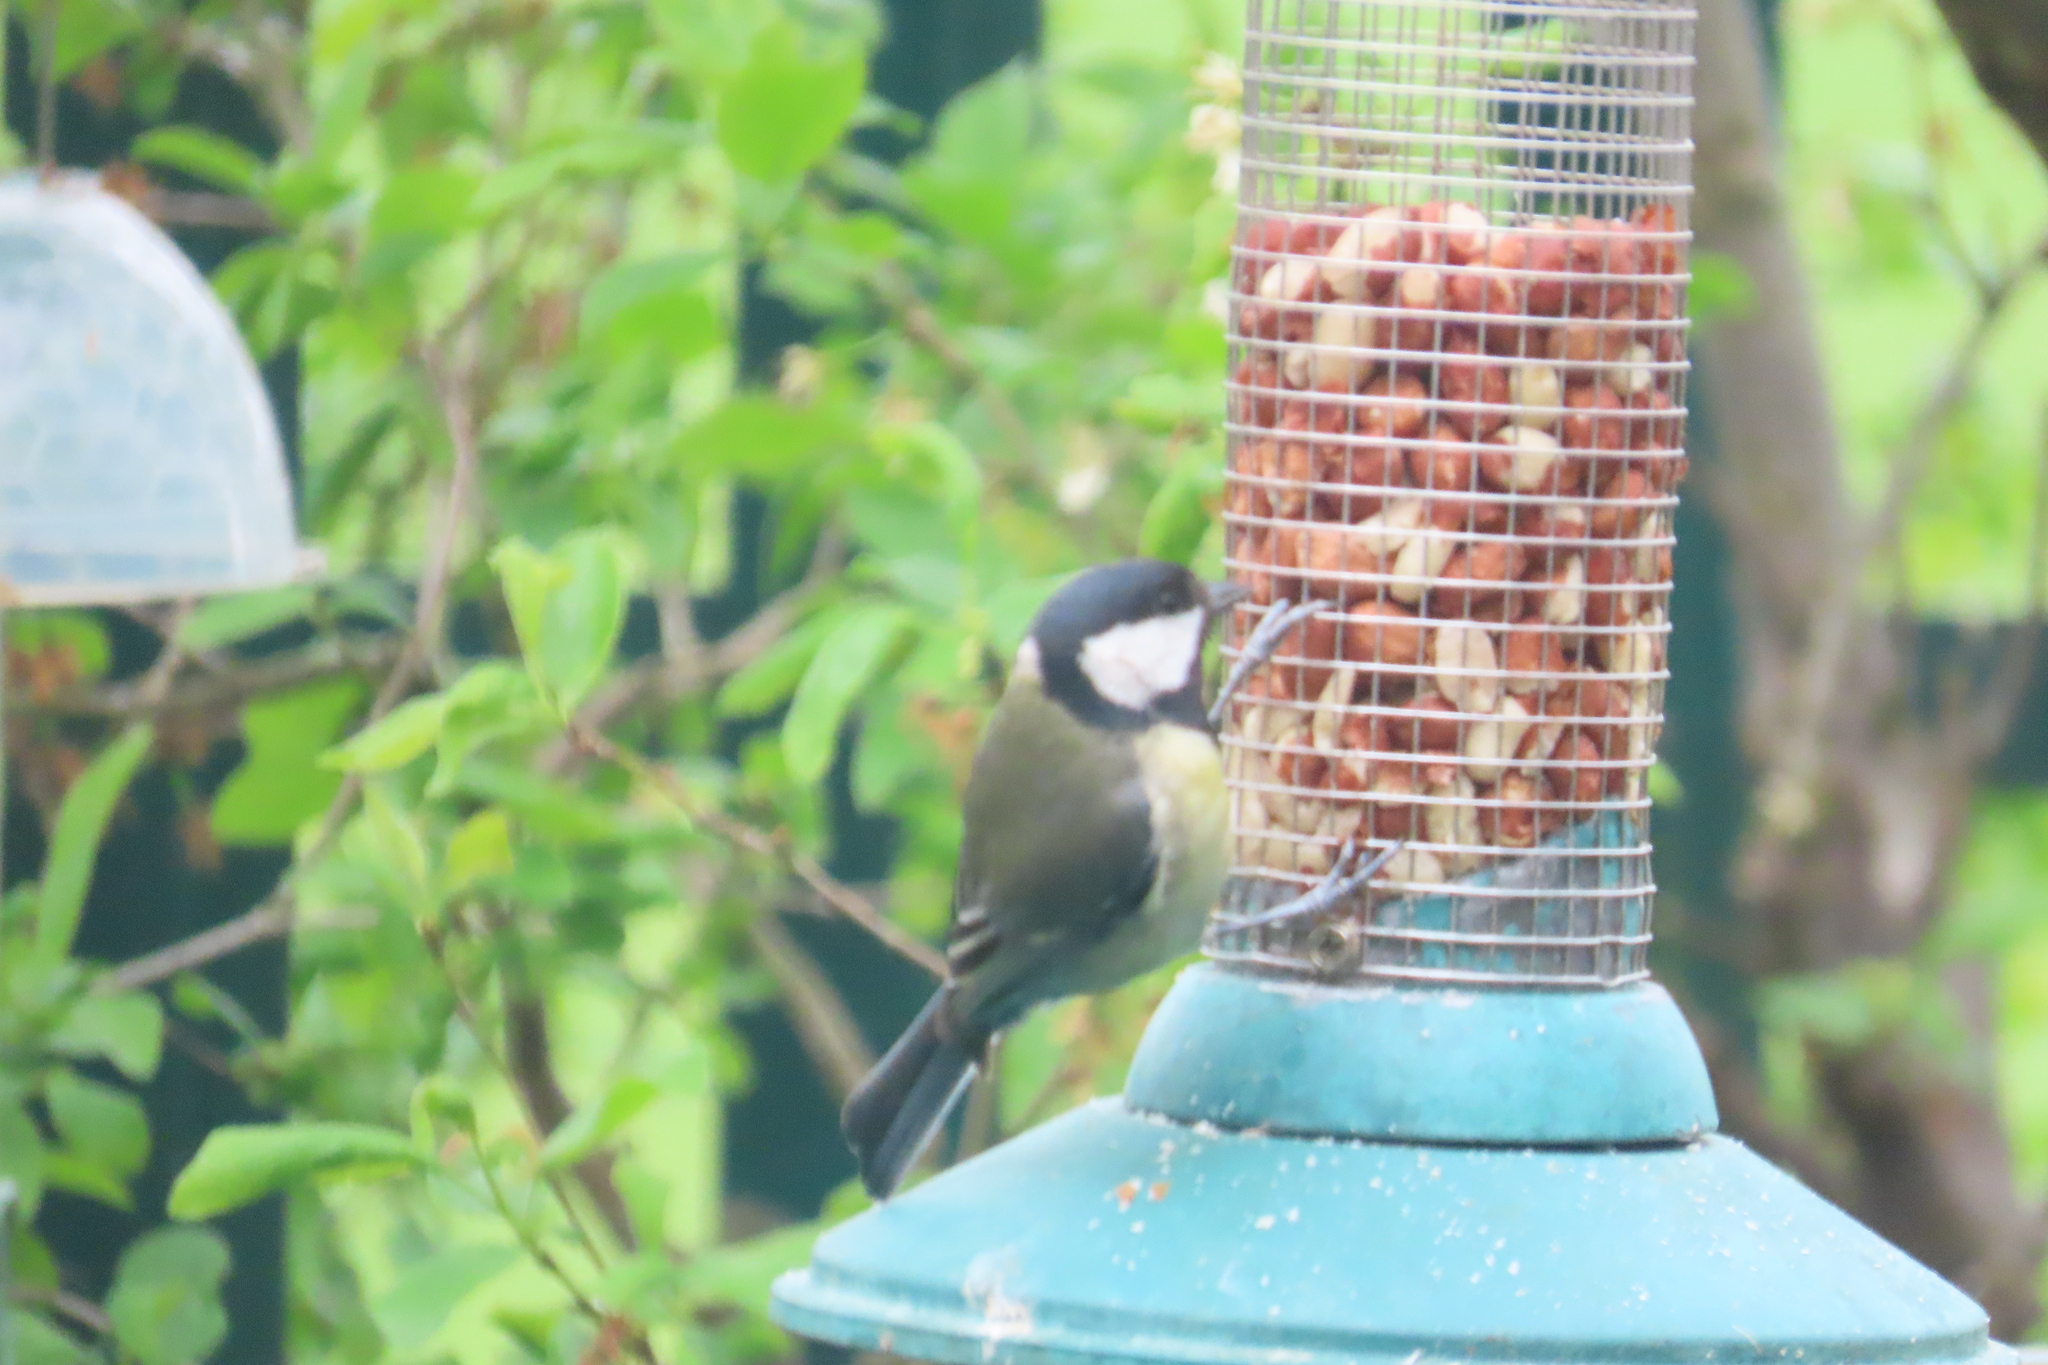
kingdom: Animalia
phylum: Chordata
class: Aves
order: Passeriformes
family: Paridae
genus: Parus
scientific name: Parus major
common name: Great tit
